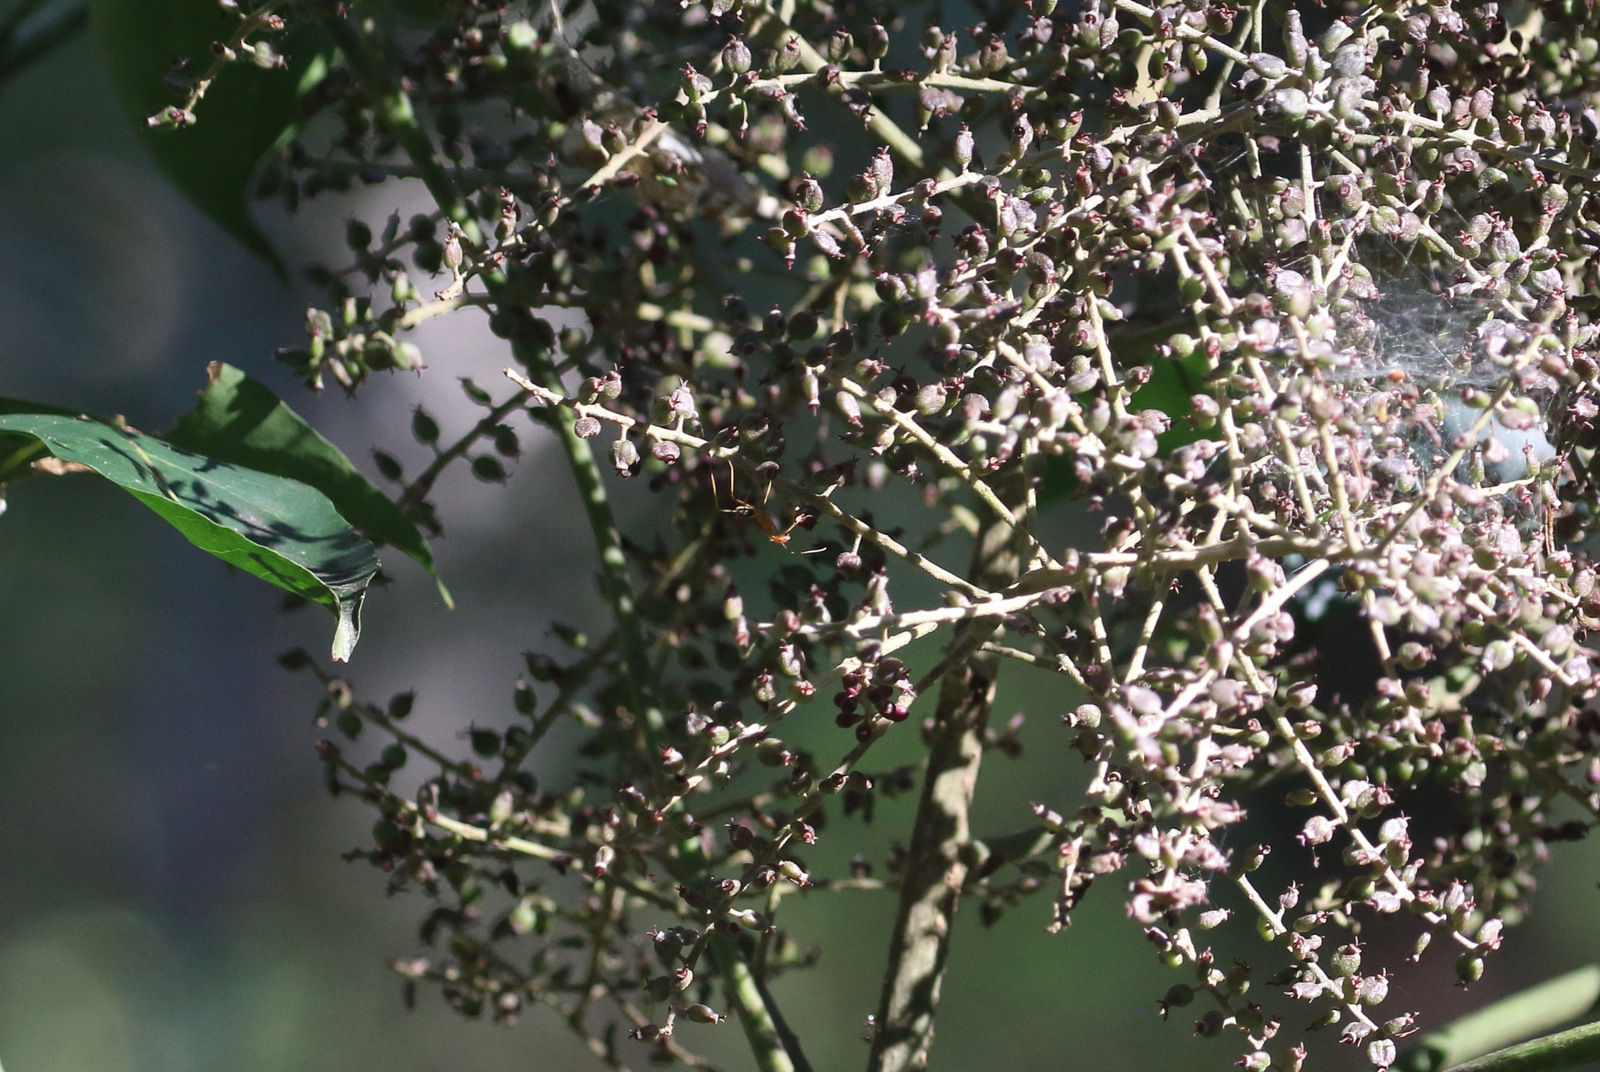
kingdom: Plantae
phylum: Tracheophyta
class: Magnoliopsida
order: Apiales
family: Araliaceae
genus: Polyscias
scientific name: Polyscias elegans
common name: Mowbulan whitewood
